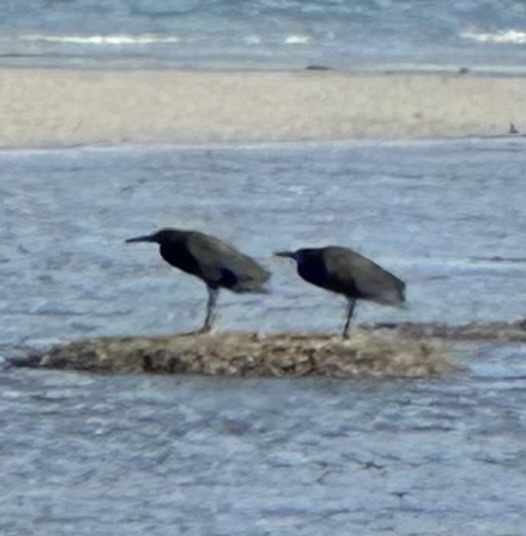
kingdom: Animalia
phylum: Chordata
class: Aves
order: Pelecaniformes
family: Ardeidae
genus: Egretta
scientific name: Egretta sacra
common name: Pacific reef heron
